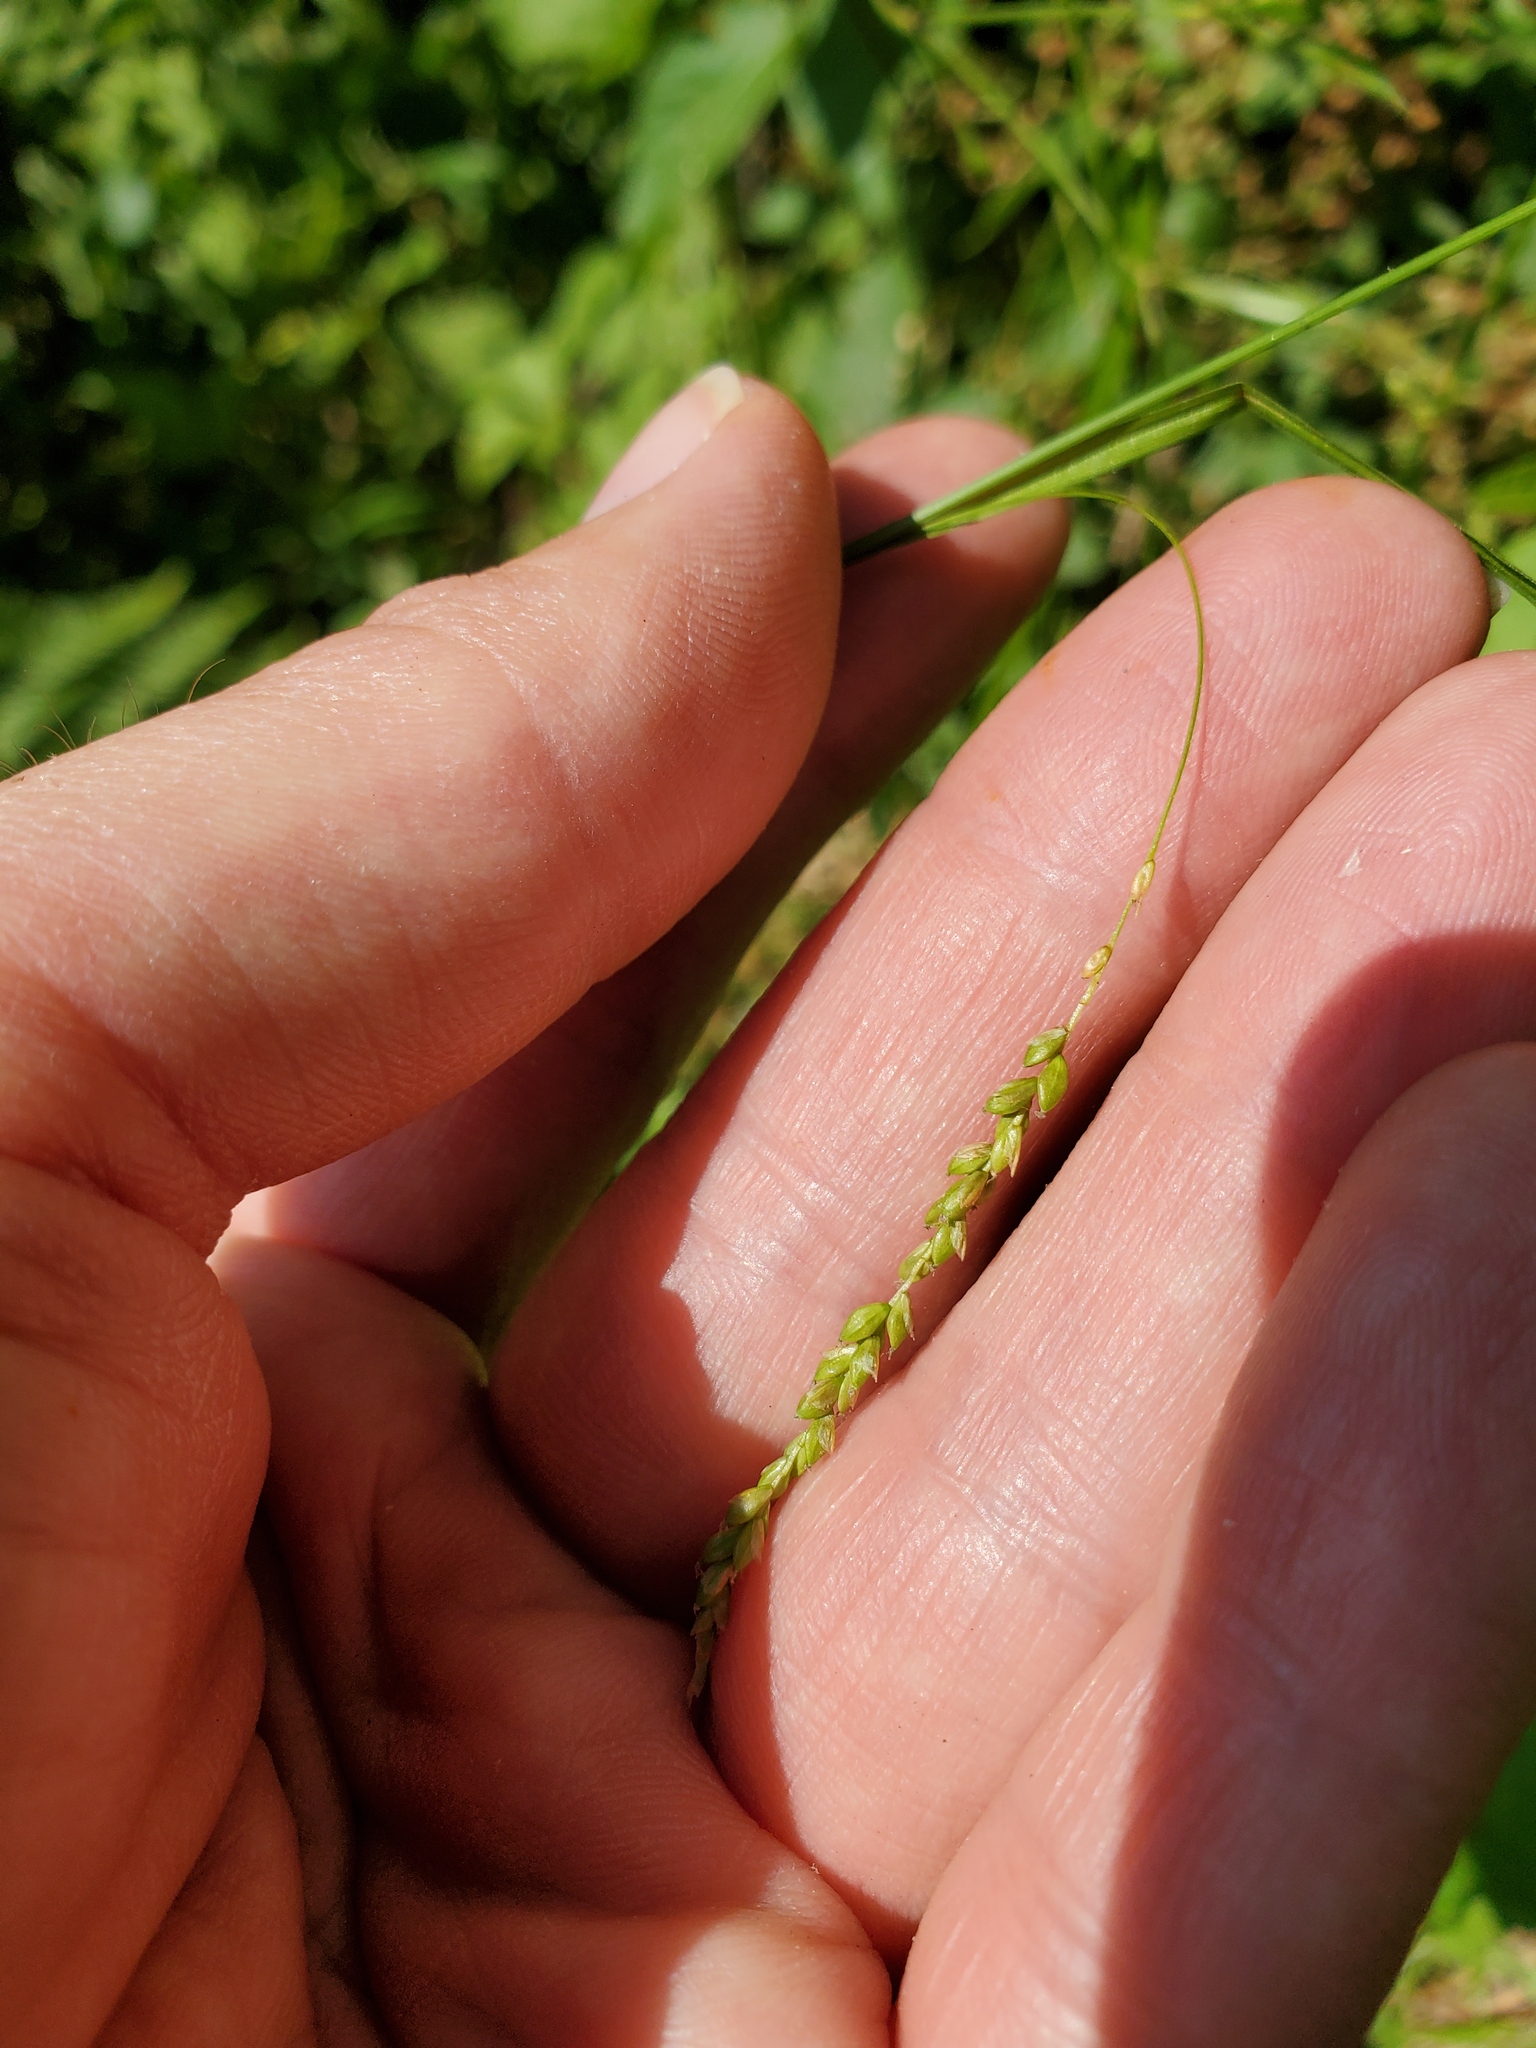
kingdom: Plantae
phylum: Tracheophyta
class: Liliopsida
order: Poales
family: Cyperaceae
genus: Carex
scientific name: Carex gracillima
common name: Graceful sedge
